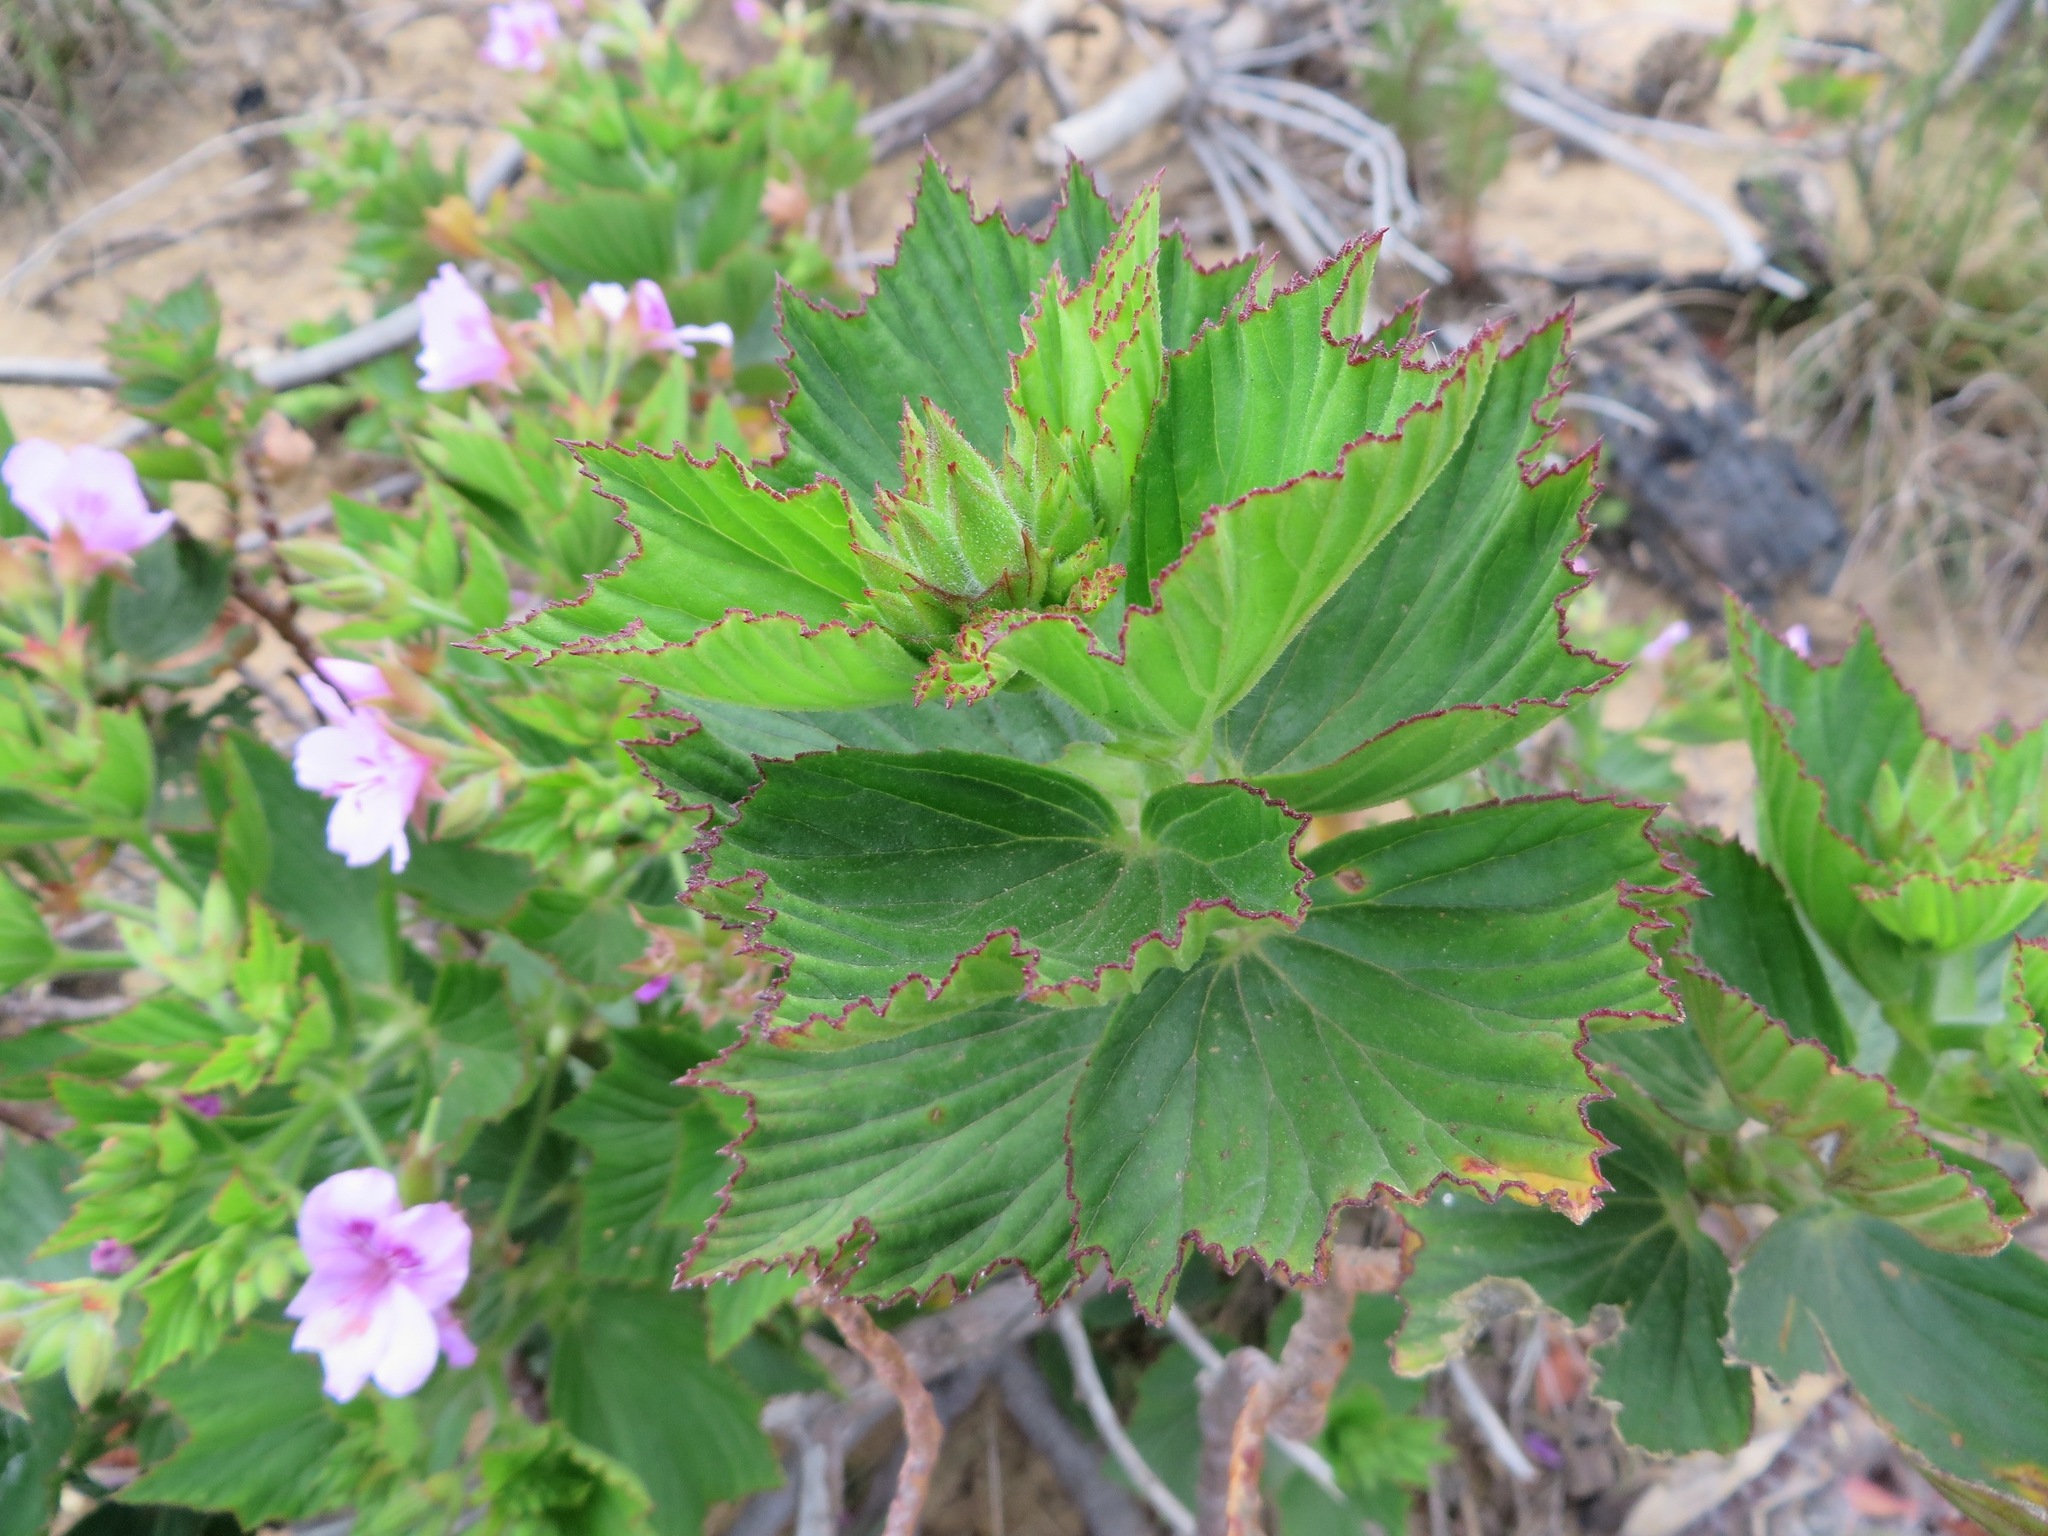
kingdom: Plantae
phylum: Tracheophyta
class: Magnoliopsida
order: Geraniales
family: Geraniaceae
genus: Pelargonium
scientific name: Pelargonium cucullatum
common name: Tree pelargonium
